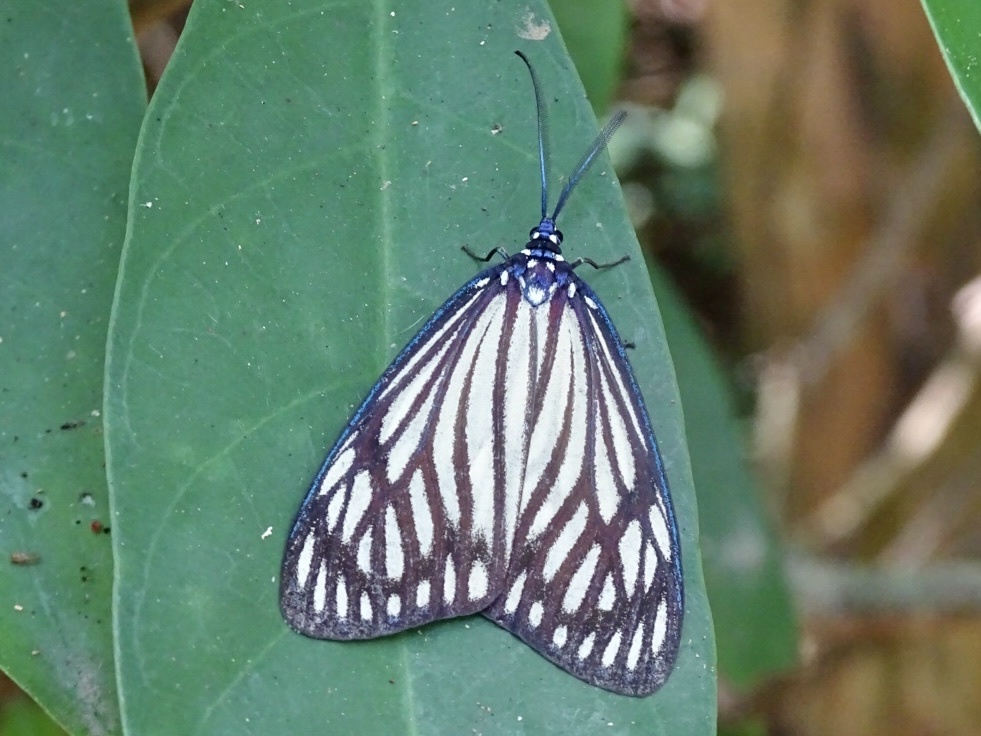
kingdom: Animalia
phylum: Arthropoda
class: Insecta
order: Lepidoptera
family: Zygaenidae
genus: Cyclosia
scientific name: Cyclosia papilionaris
